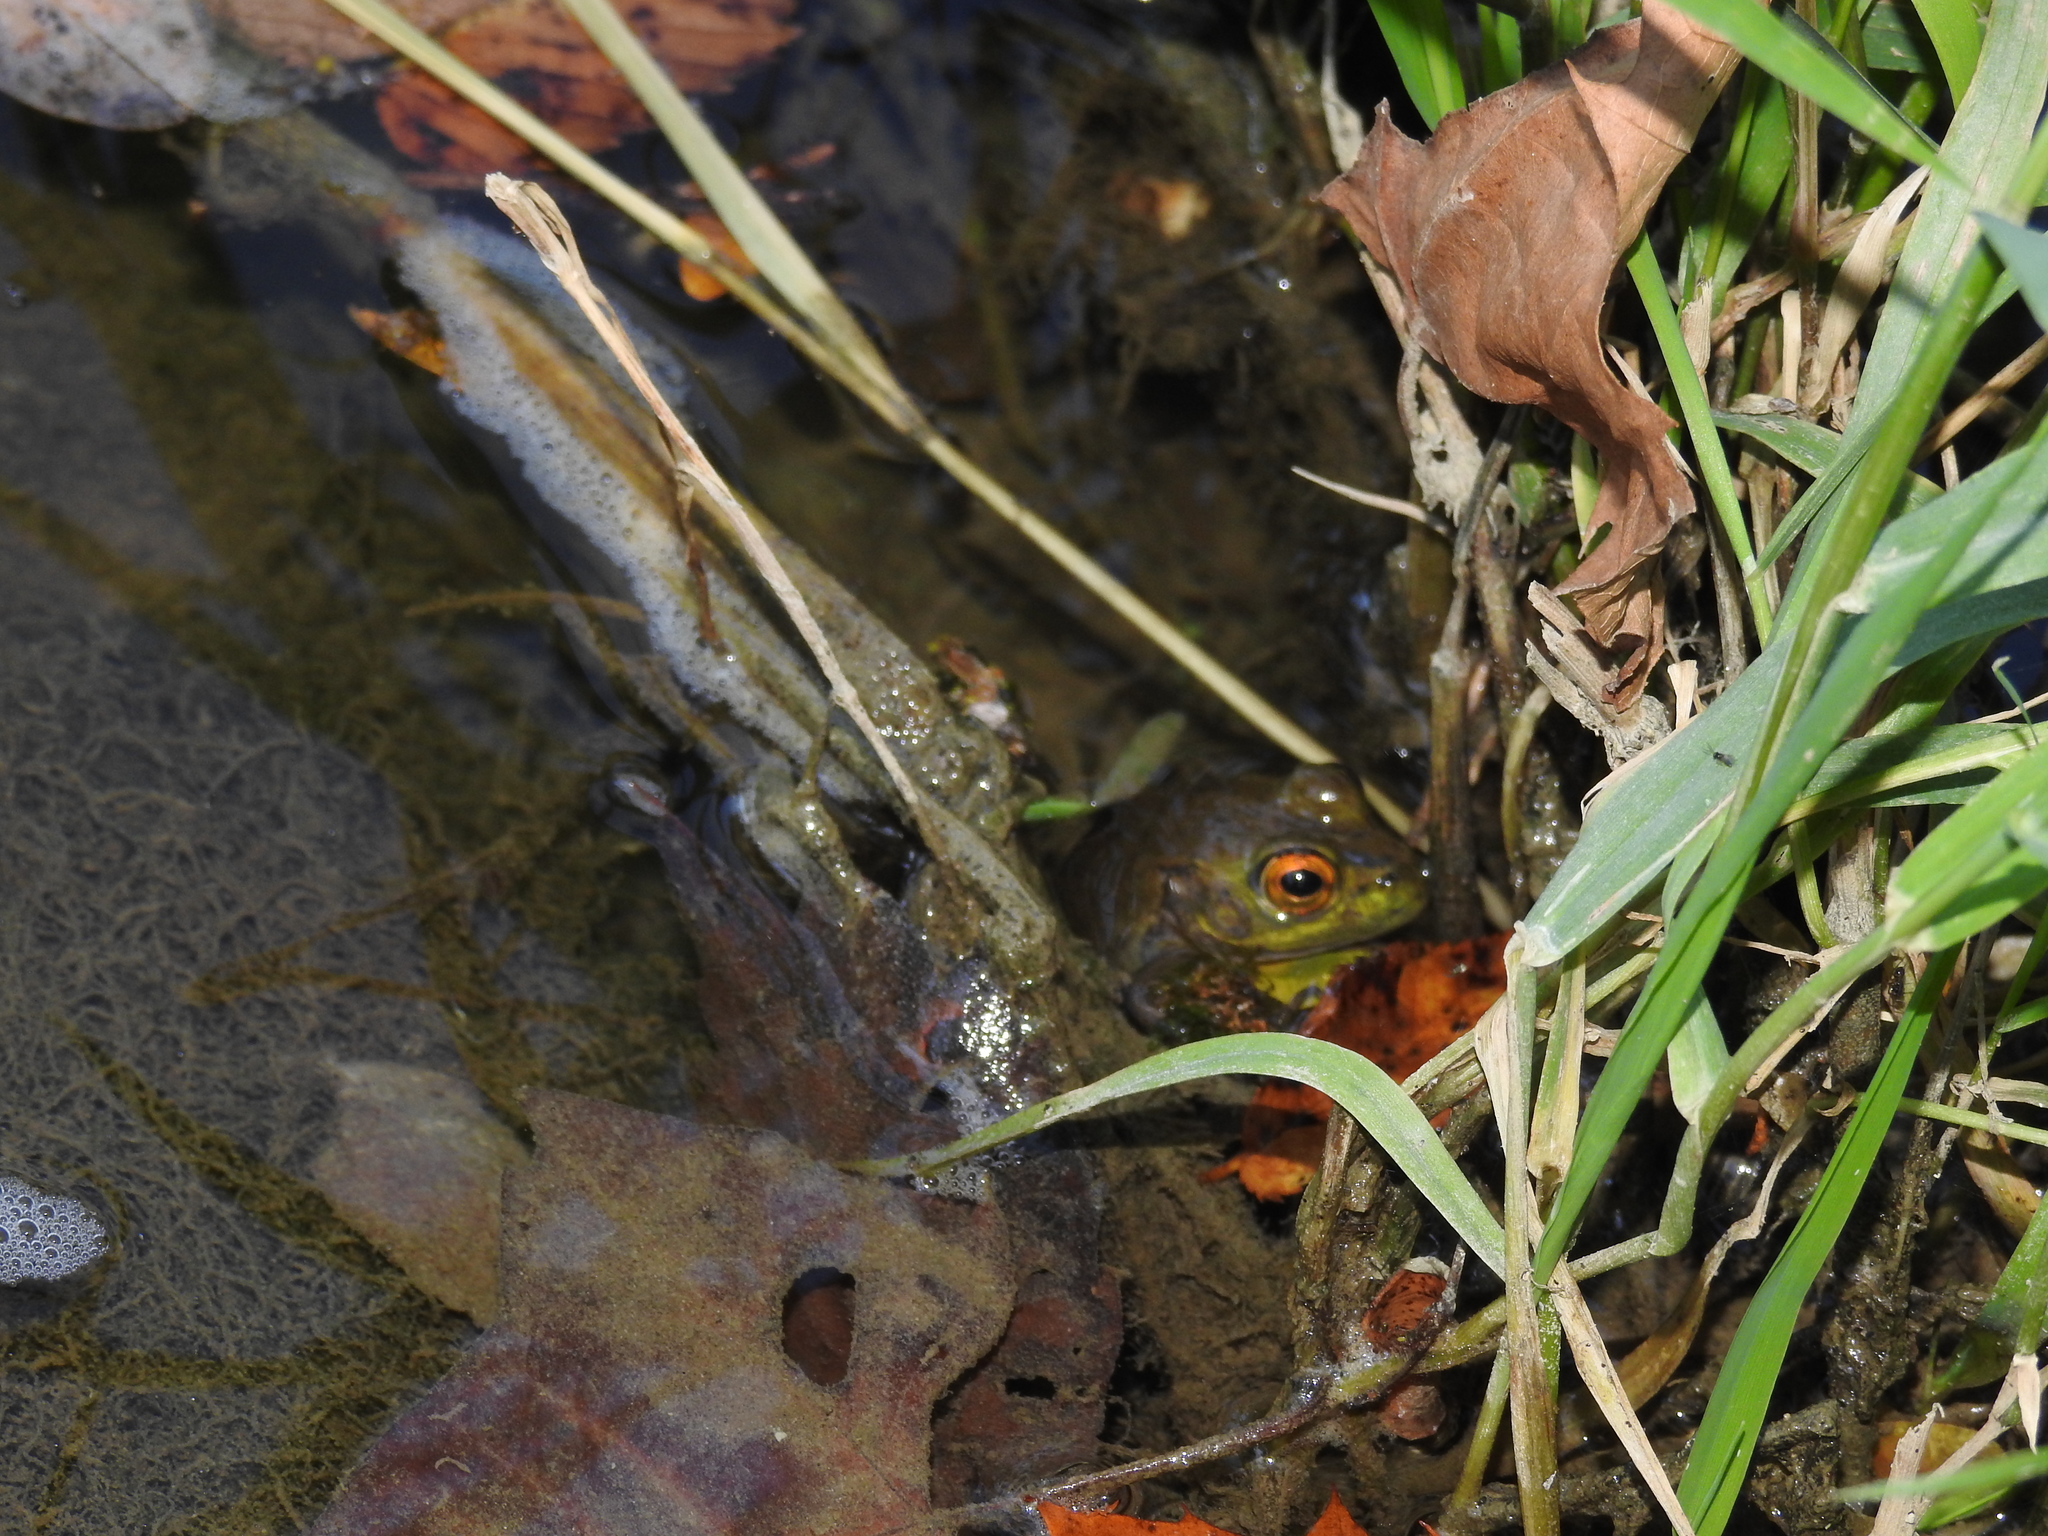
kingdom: Animalia
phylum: Chordata
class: Amphibia
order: Anura
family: Ranidae
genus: Lithobates
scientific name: Lithobates catesbeianus
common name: American bullfrog
